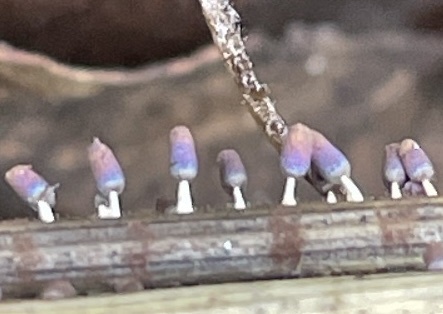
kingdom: Protozoa
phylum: Mycetozoa
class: Myxomycetes
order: Physarales
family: Didymiaceae
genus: Diachea
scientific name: Diachea leucopodia
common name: White-footed slime
